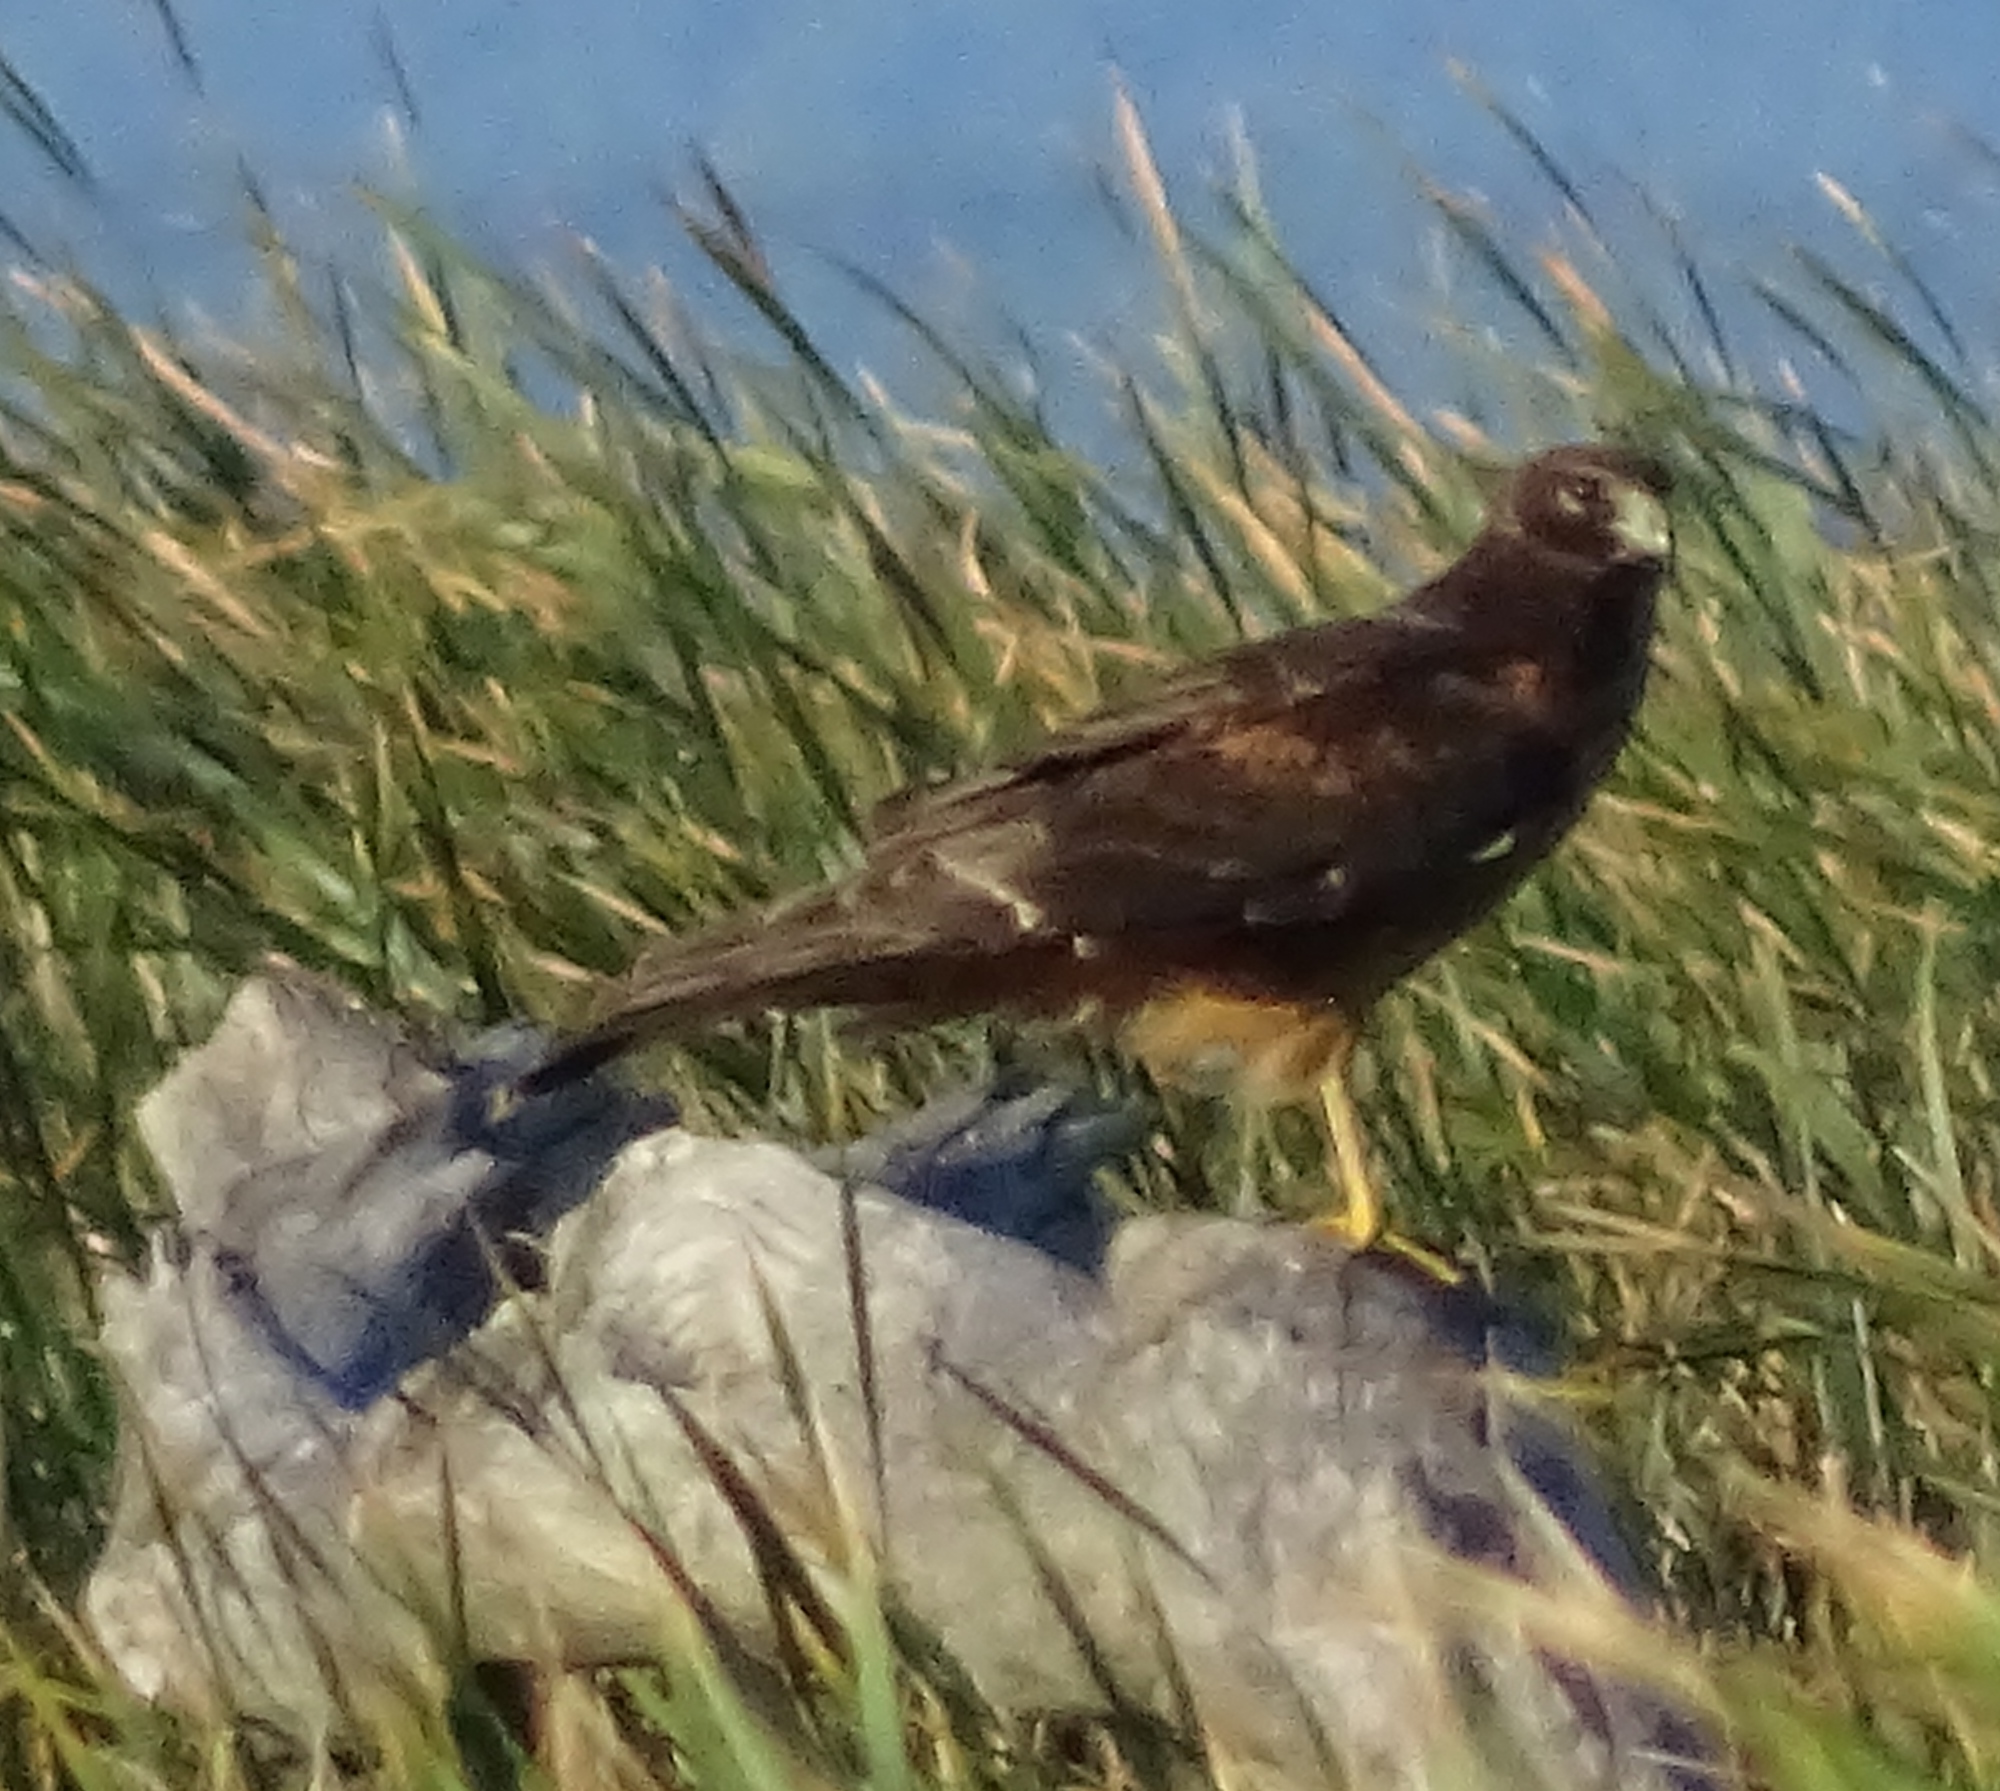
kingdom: Animalia
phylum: Chordata
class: Aves
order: Accipitriformes
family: Accipitridae
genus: Circus
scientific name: Circus cyaneus
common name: Hen harrier
